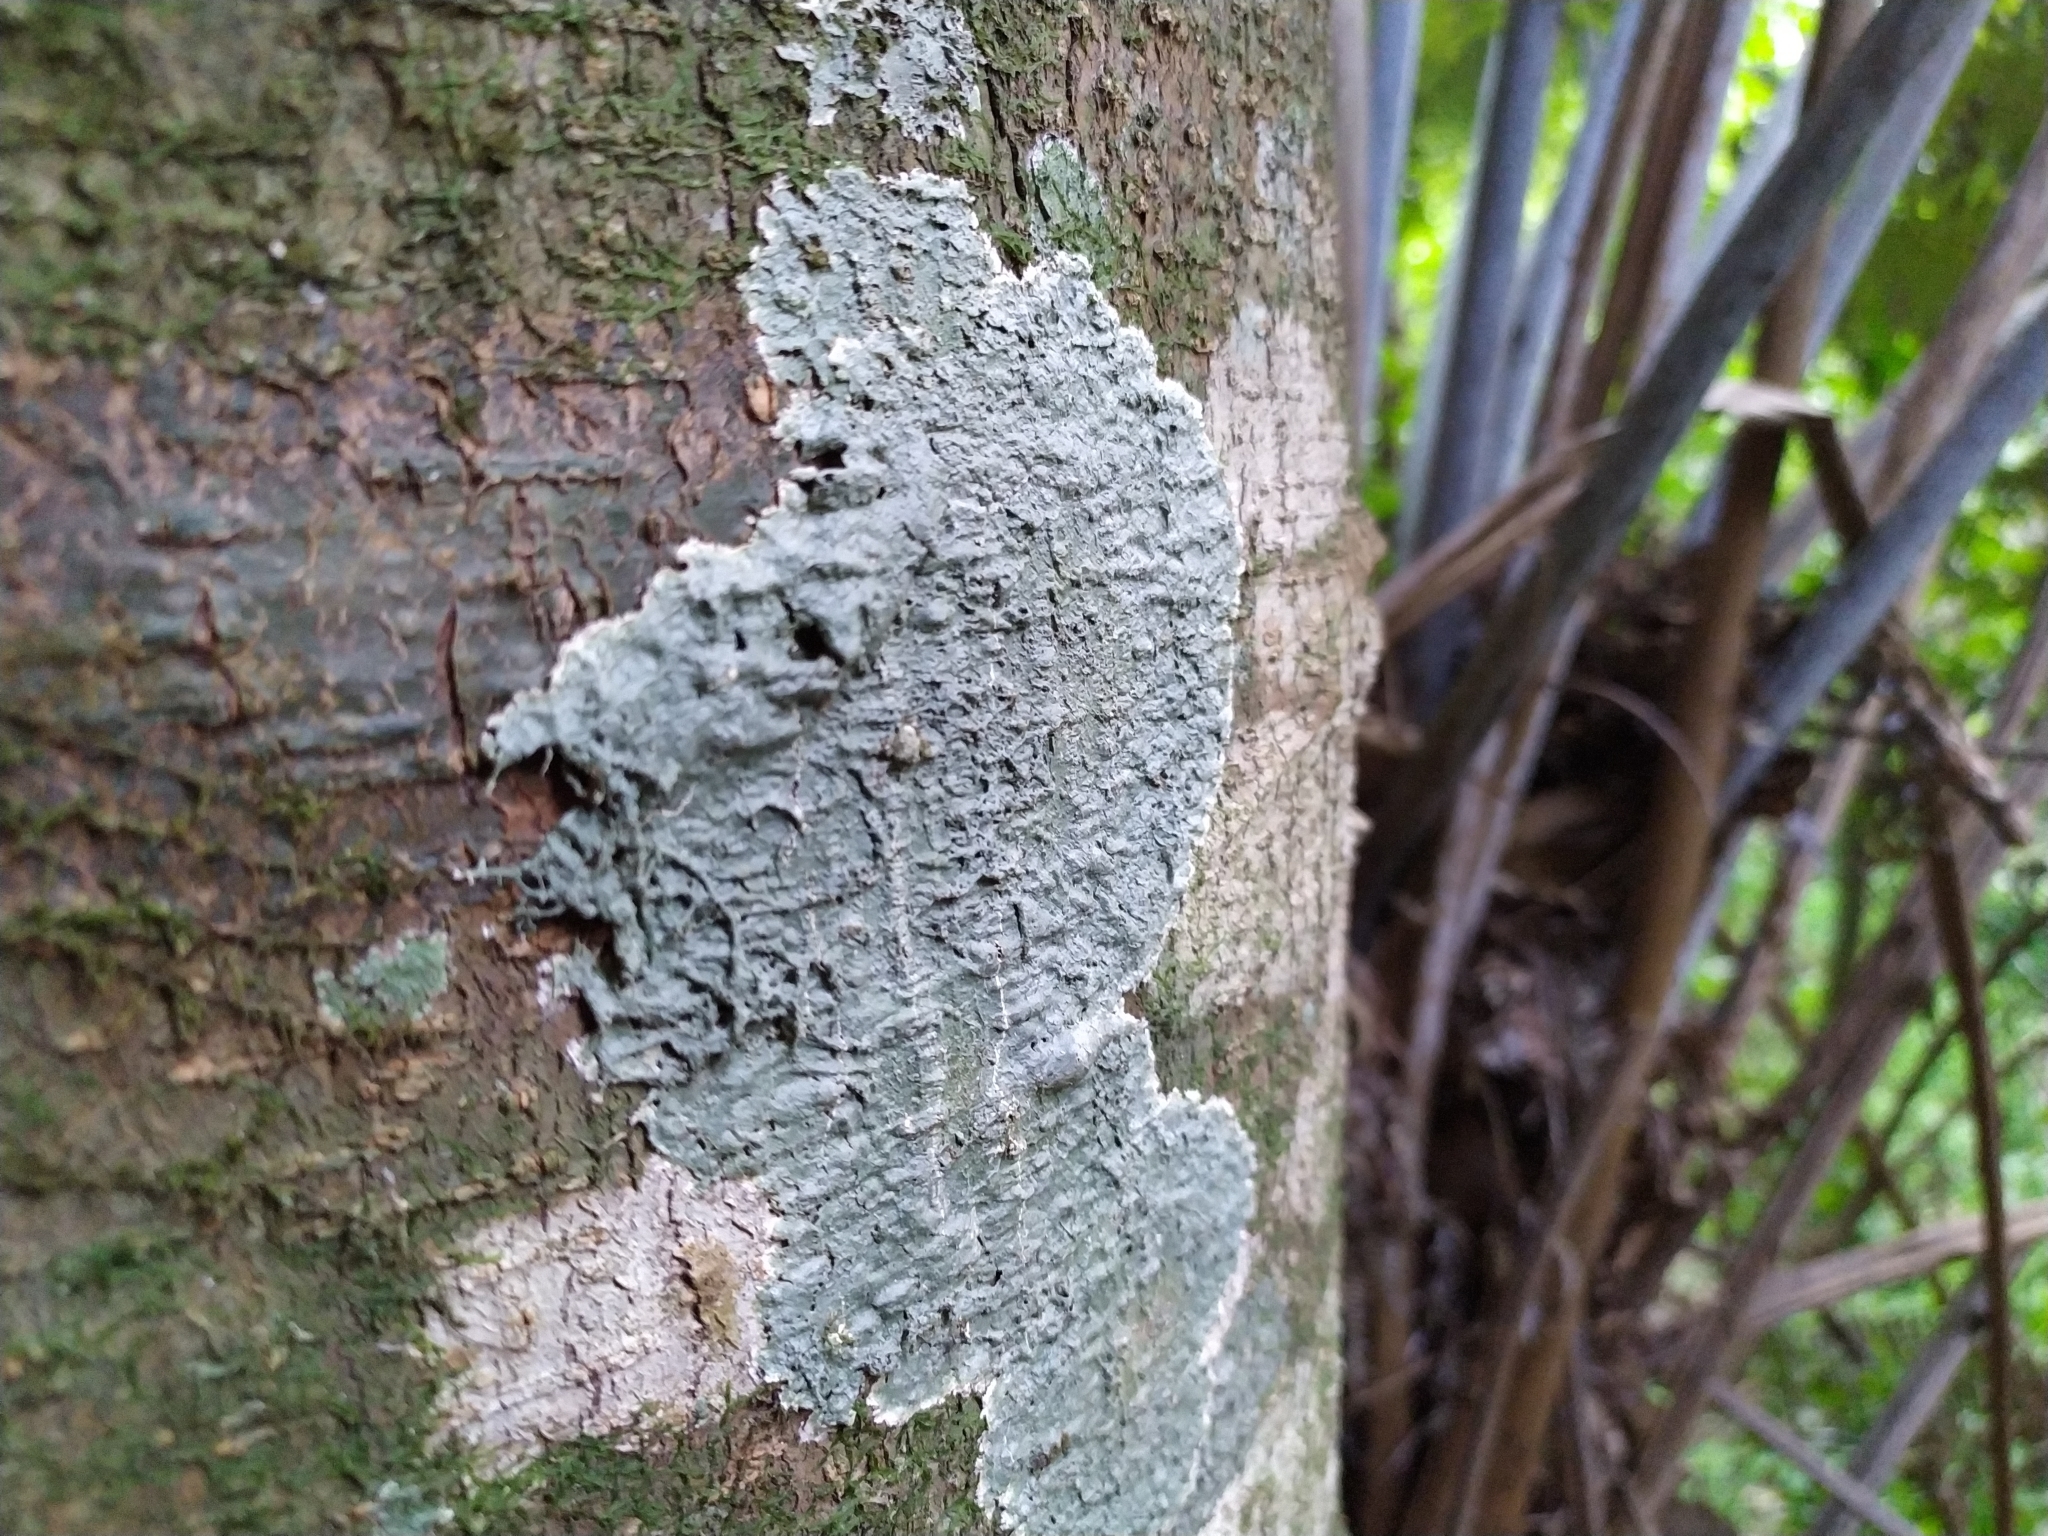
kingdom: Fungi
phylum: Ascomycota
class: Lecanoromycetes
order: Pertusariales
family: Pertusariaceae
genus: Porina
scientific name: Porina exocha
